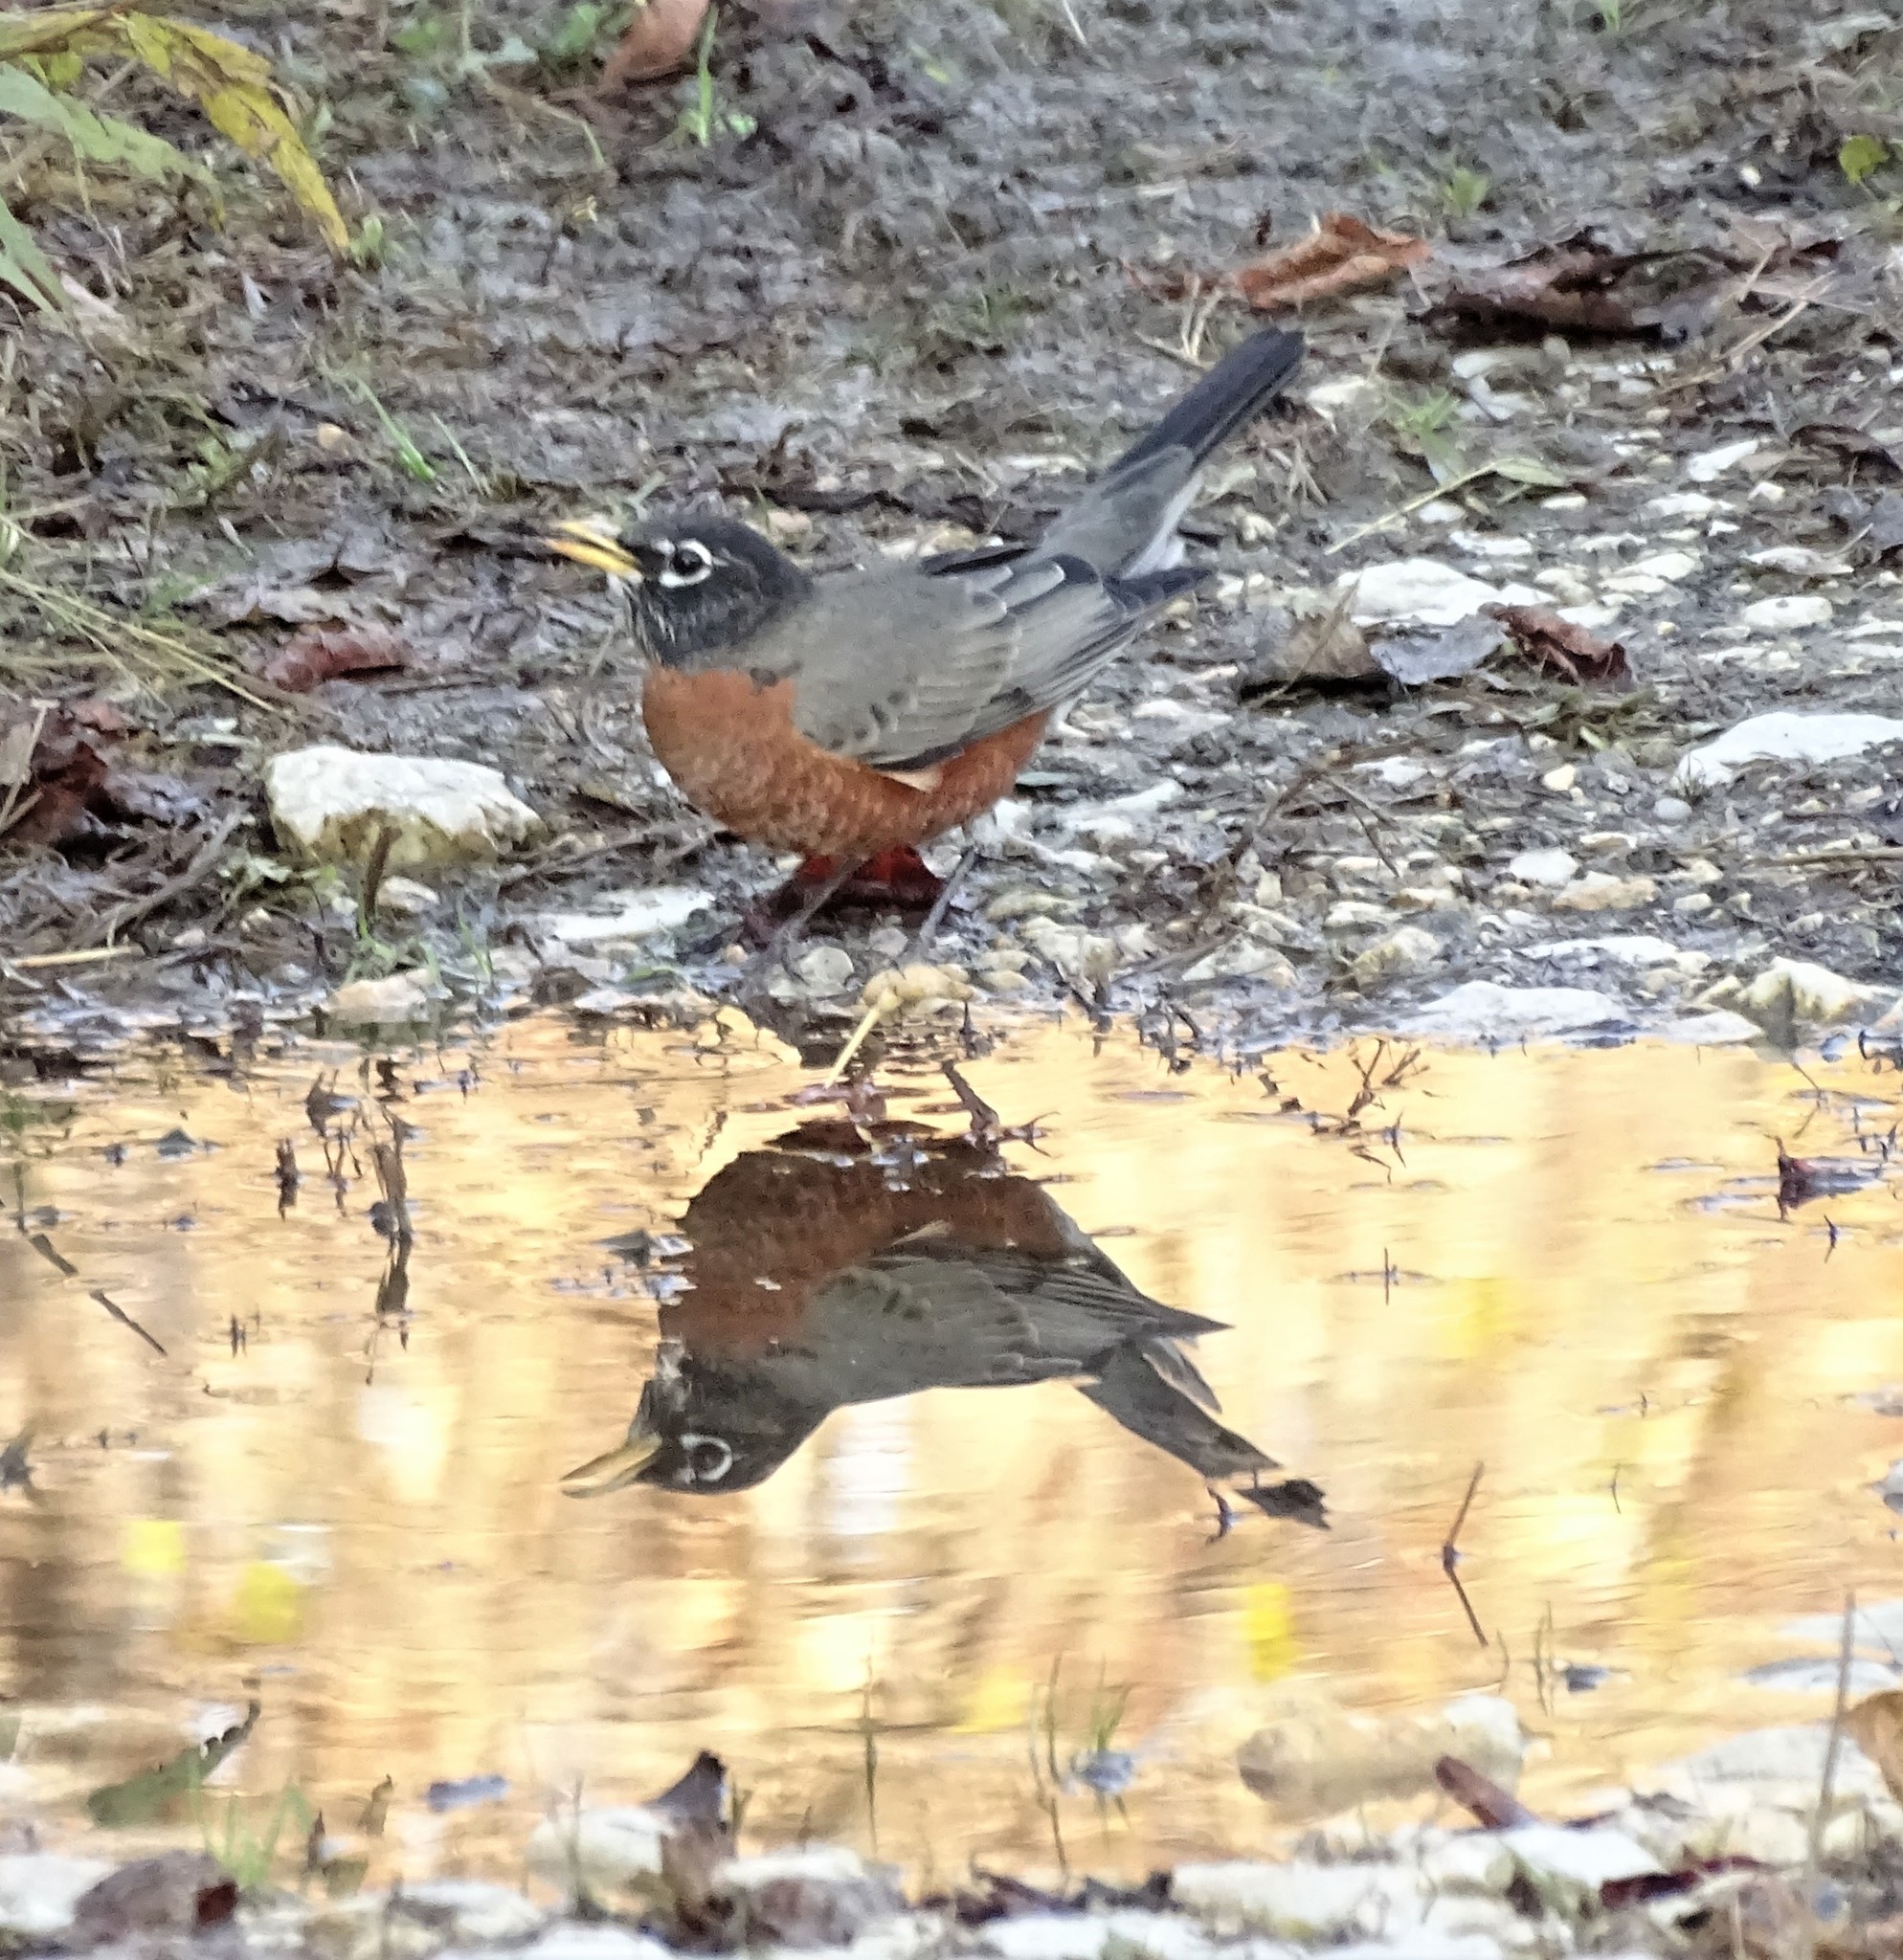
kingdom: Animalia
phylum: Chordata
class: Aves
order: Passeriformes
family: Turdidae
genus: Turdus
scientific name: Turdus migratorius
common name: American robin
